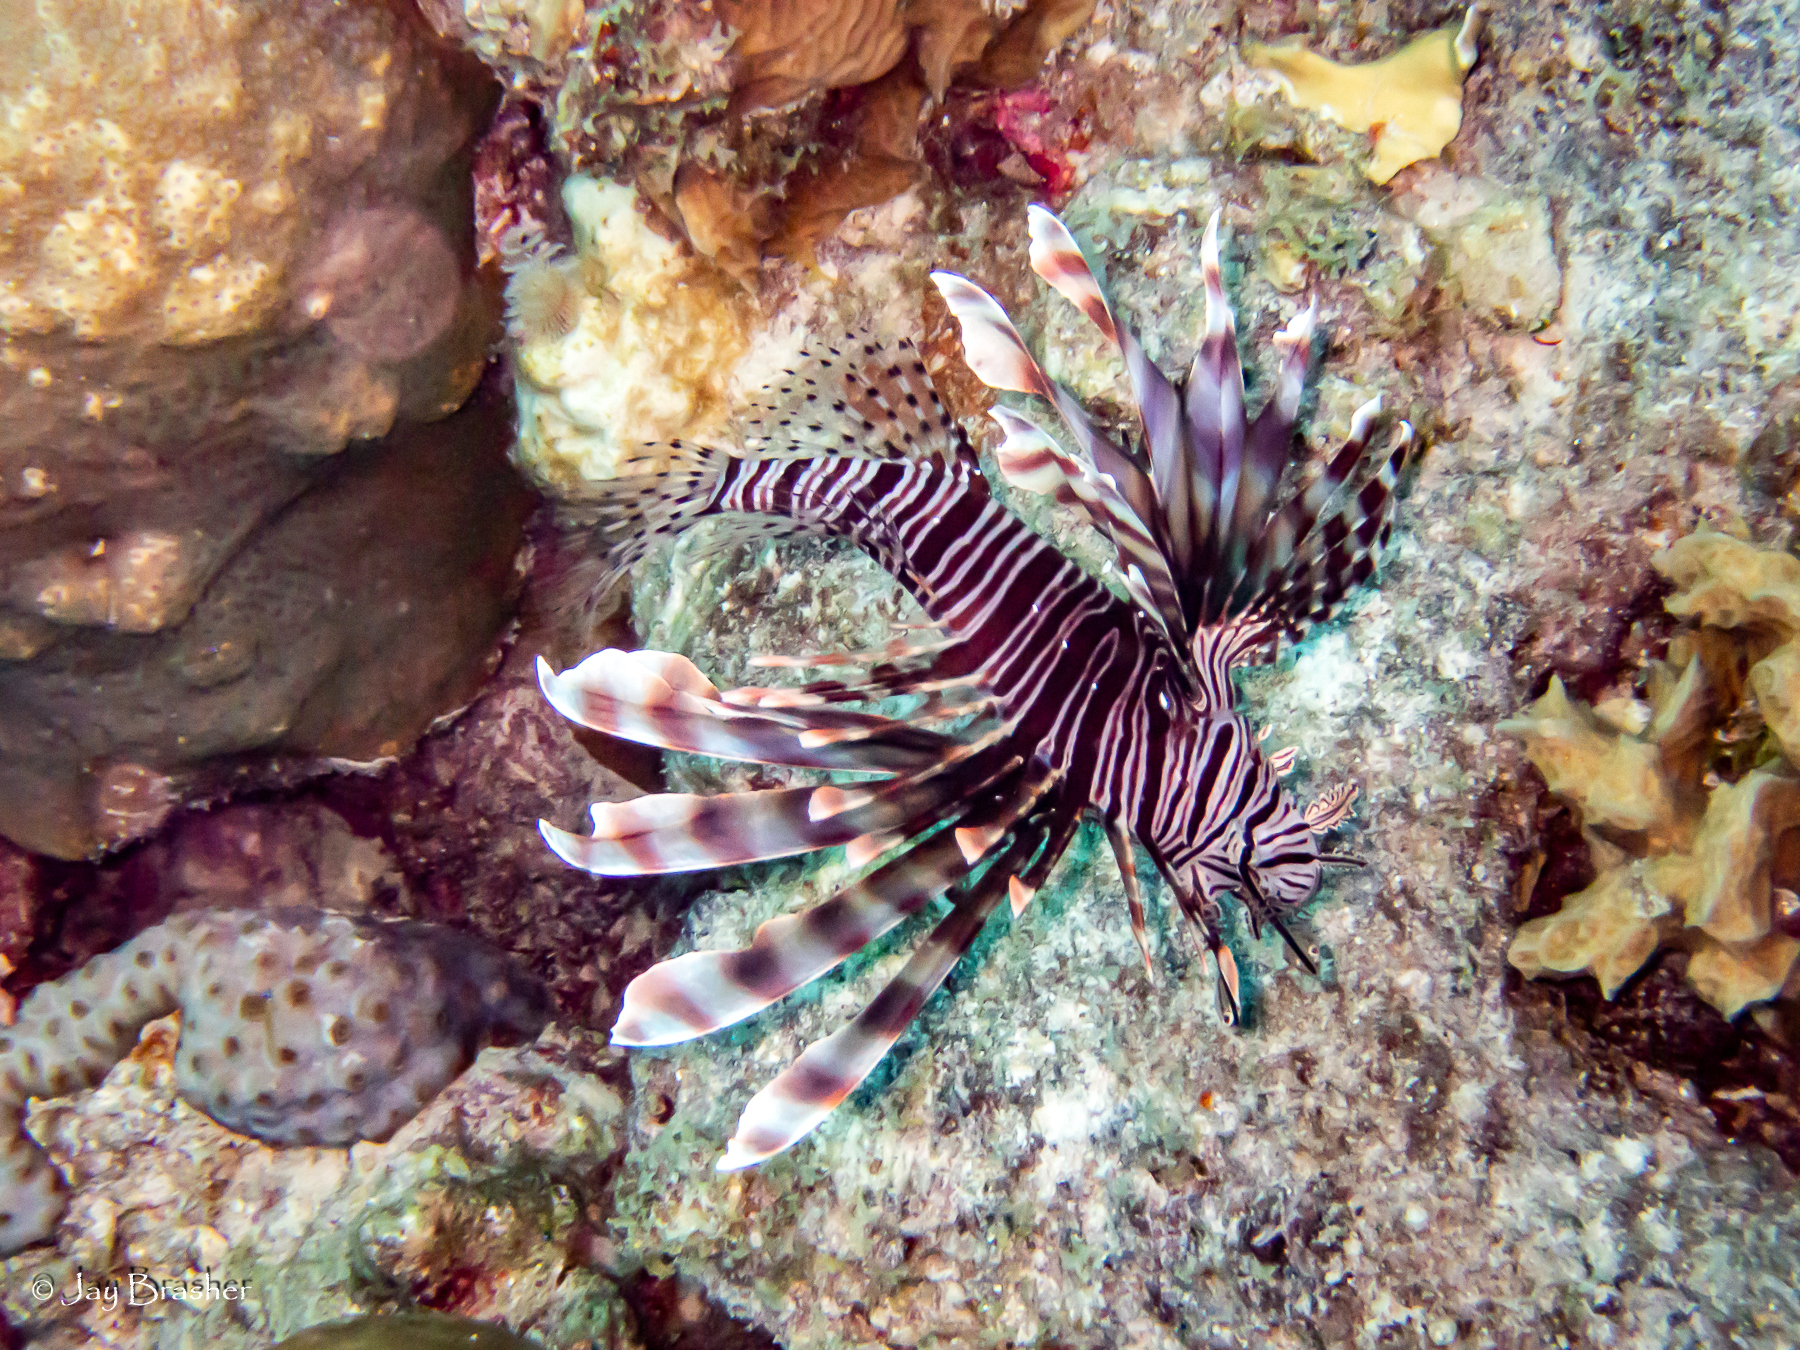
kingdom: Animalia
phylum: Chordata
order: Scorpaeniformes
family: Scorpaenidae
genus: Pterois
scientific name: Pterois volitans
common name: Lionfish
